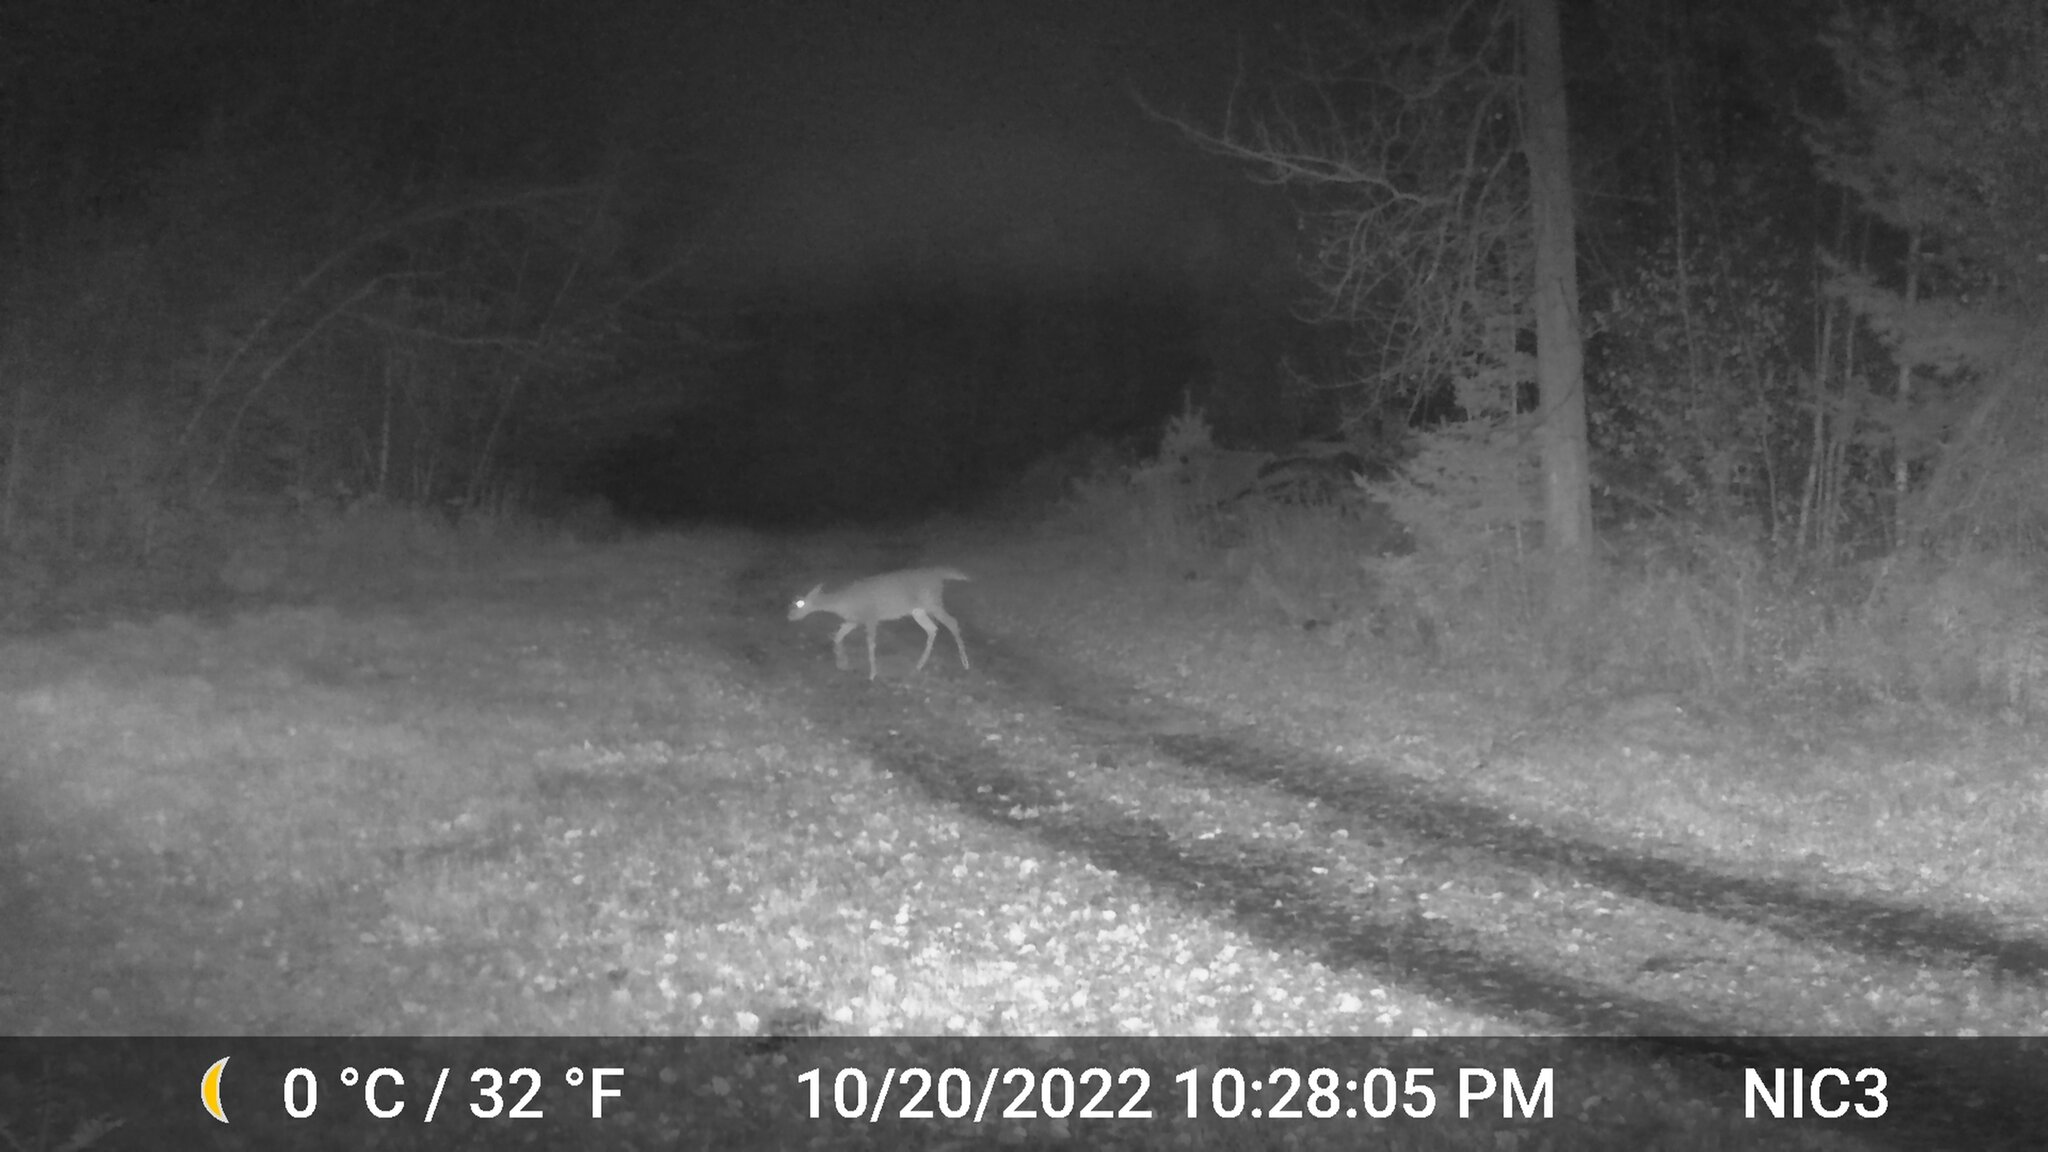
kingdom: Animalia
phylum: Chordata
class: Mammalia
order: Artiodactyla
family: Cervidae
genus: Odocoileus
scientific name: Odocoileus virginianus
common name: White-tailed deer
